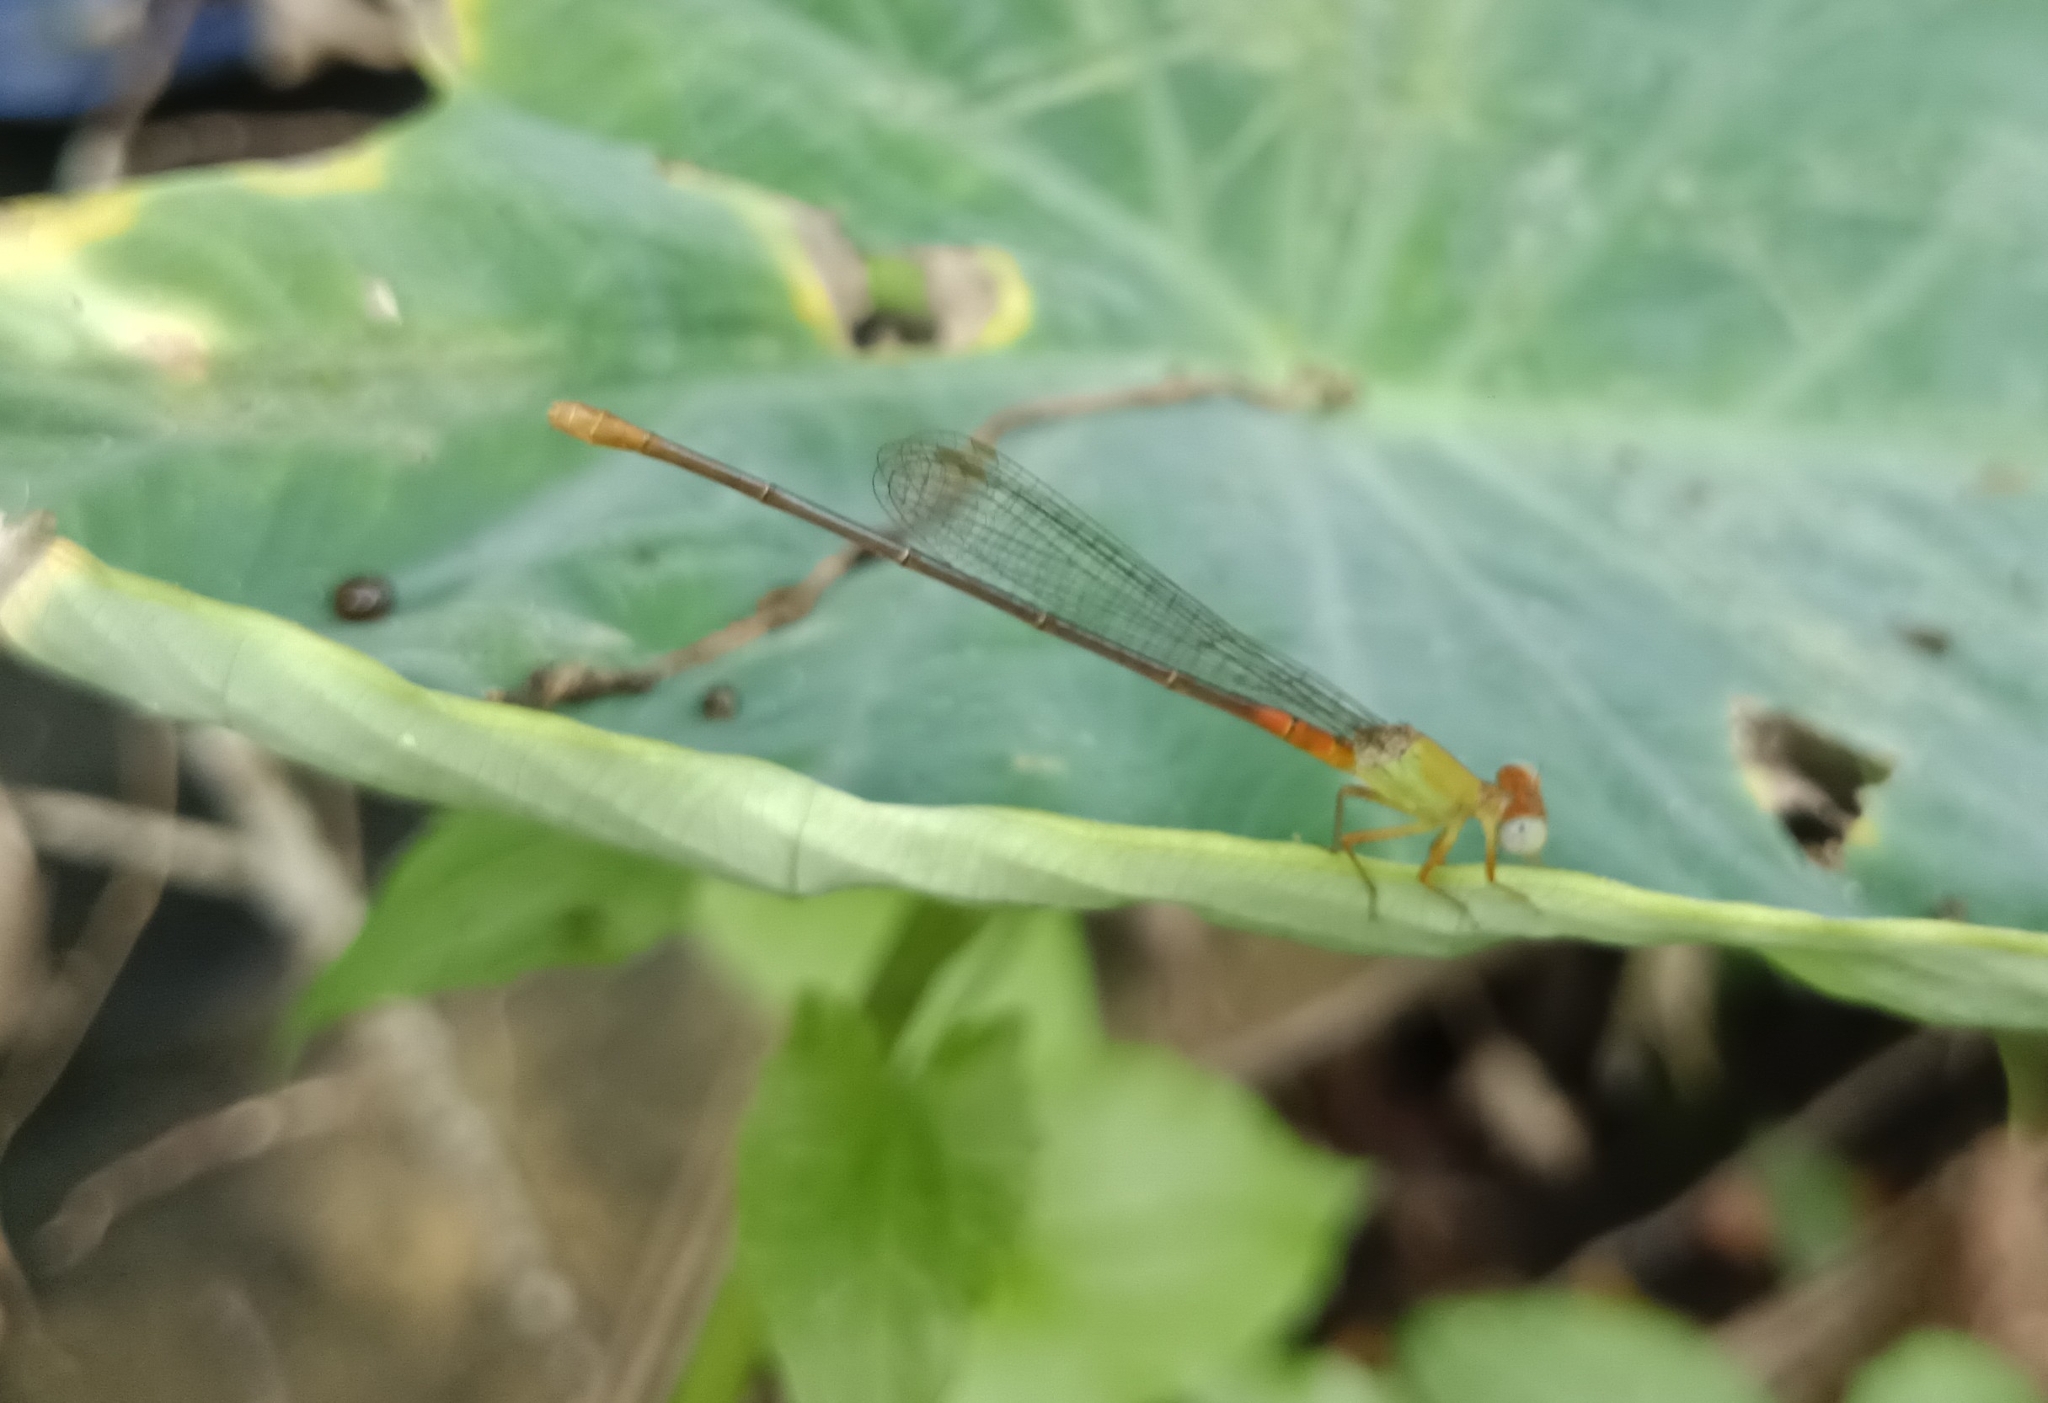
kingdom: Animalia
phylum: Arthropoda
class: Insecta
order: Odonata
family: Coenagrionidae
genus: Ceriagrion
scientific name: Ceriagrion cerinorubellum
